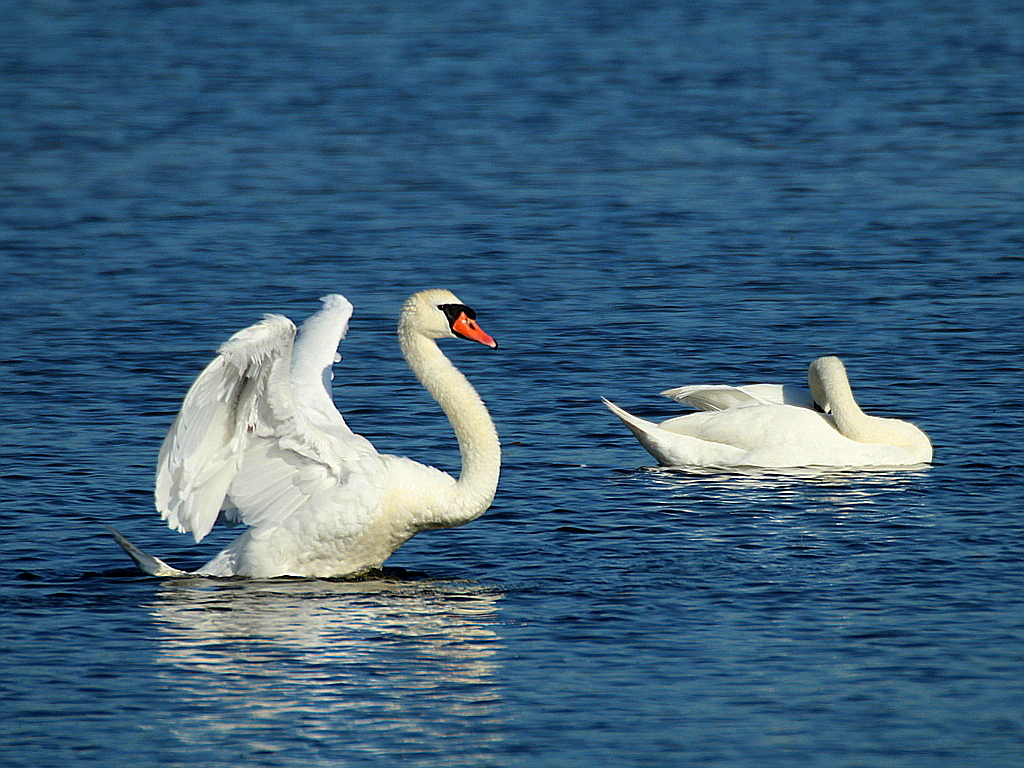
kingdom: Animalia
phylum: Chordata
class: Aves
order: Anseriformes
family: Anatidae
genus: Cygnus
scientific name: Cygnus olor
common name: Mute swan
